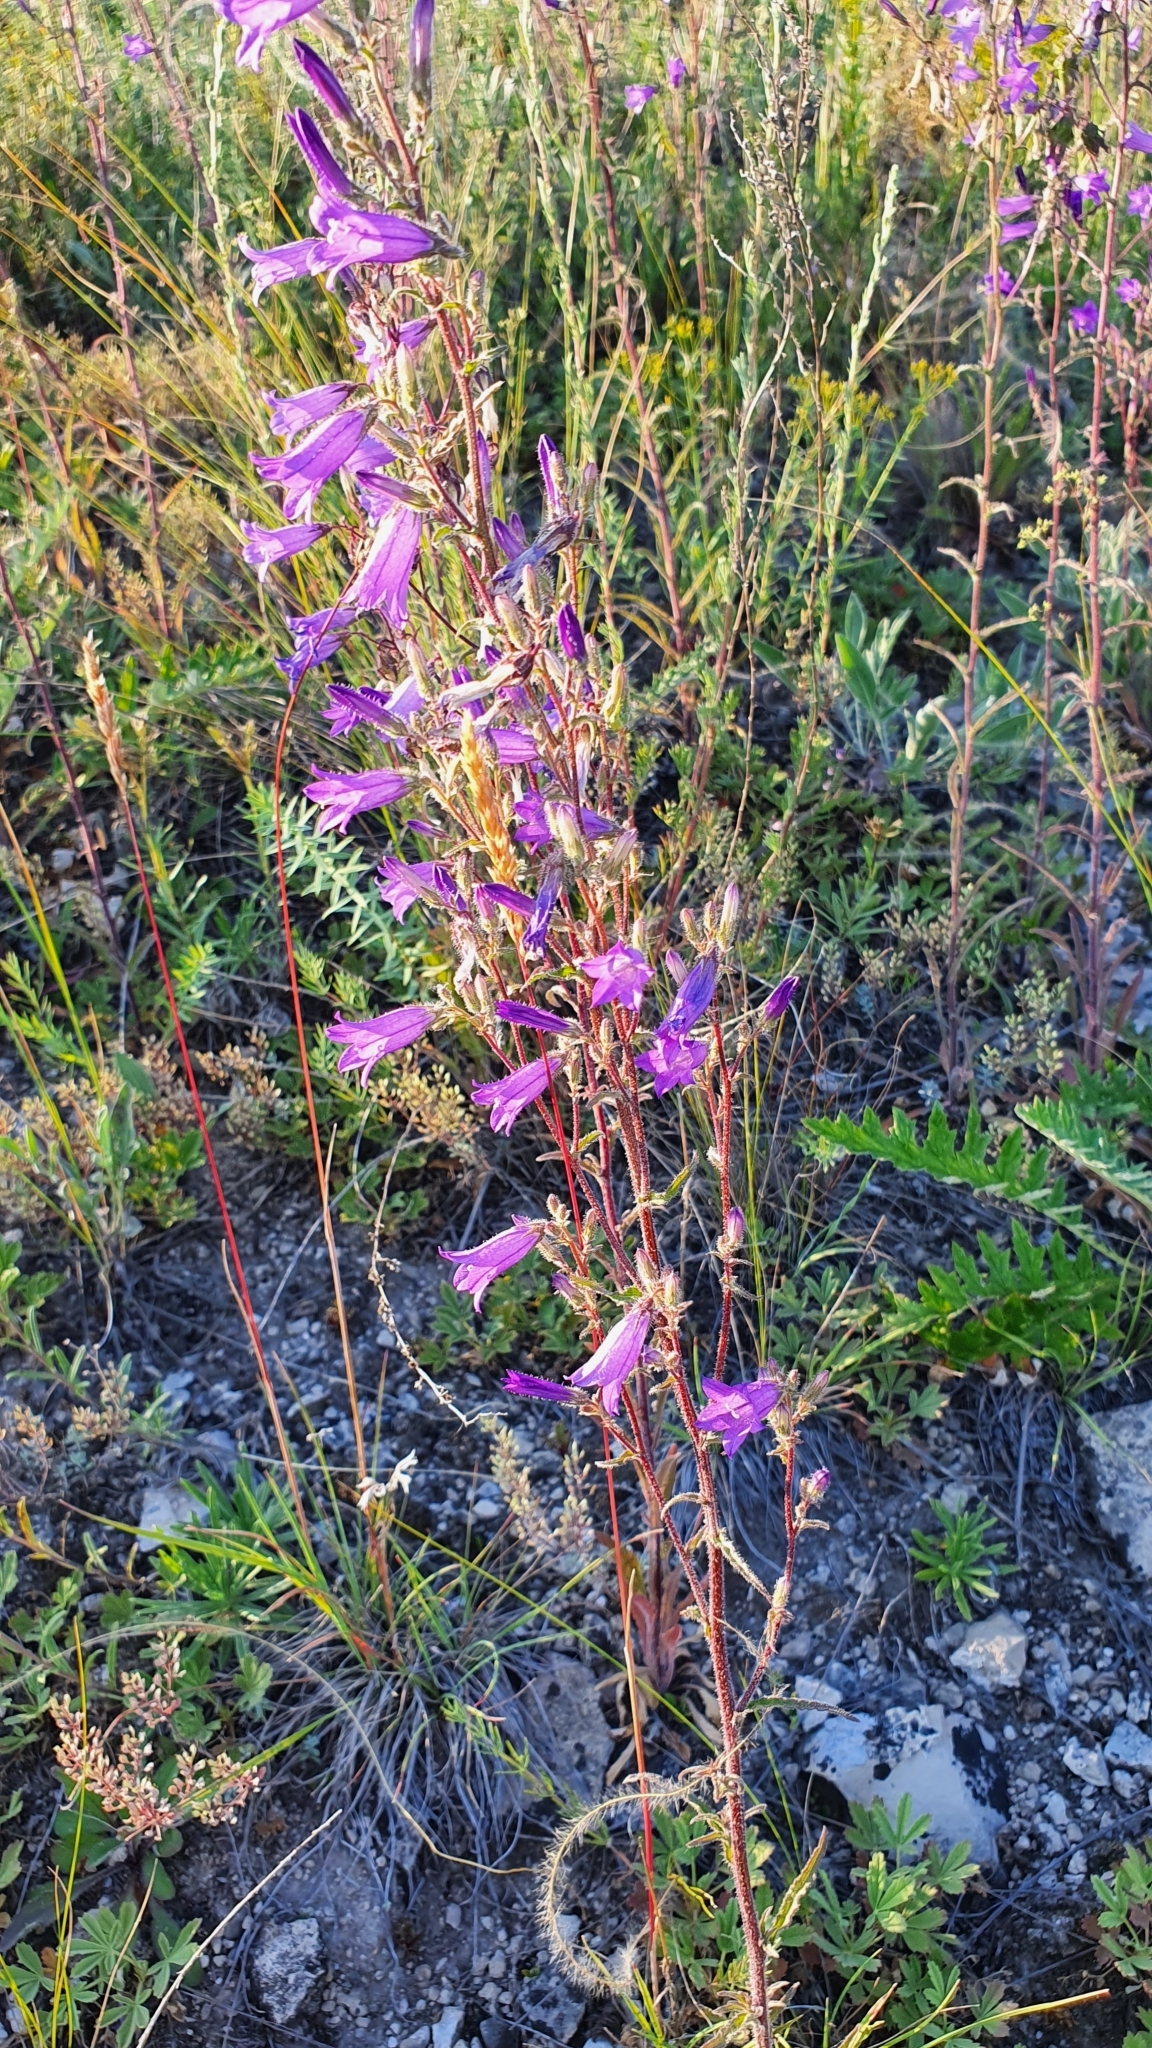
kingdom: Plantae
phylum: Tracheophyta
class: Magnoliopsida
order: Asterales
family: Campanulaceae
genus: Campanula
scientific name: Campanula sibirica
